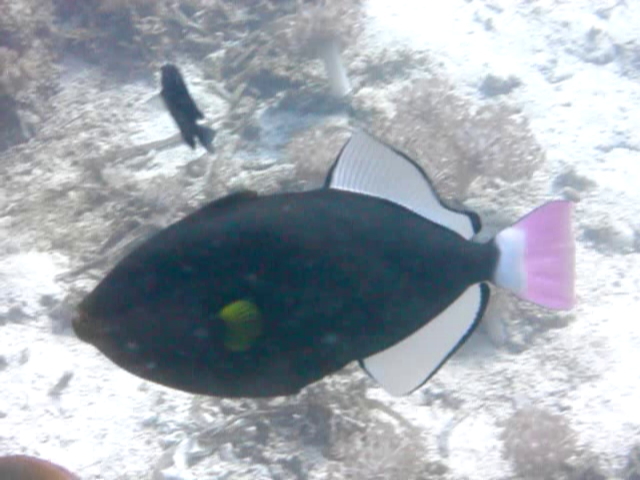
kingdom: Animalia
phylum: Chordata
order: Tetraodontiformes
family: Balistidae
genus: Melichthys
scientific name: Melichthys vidua
